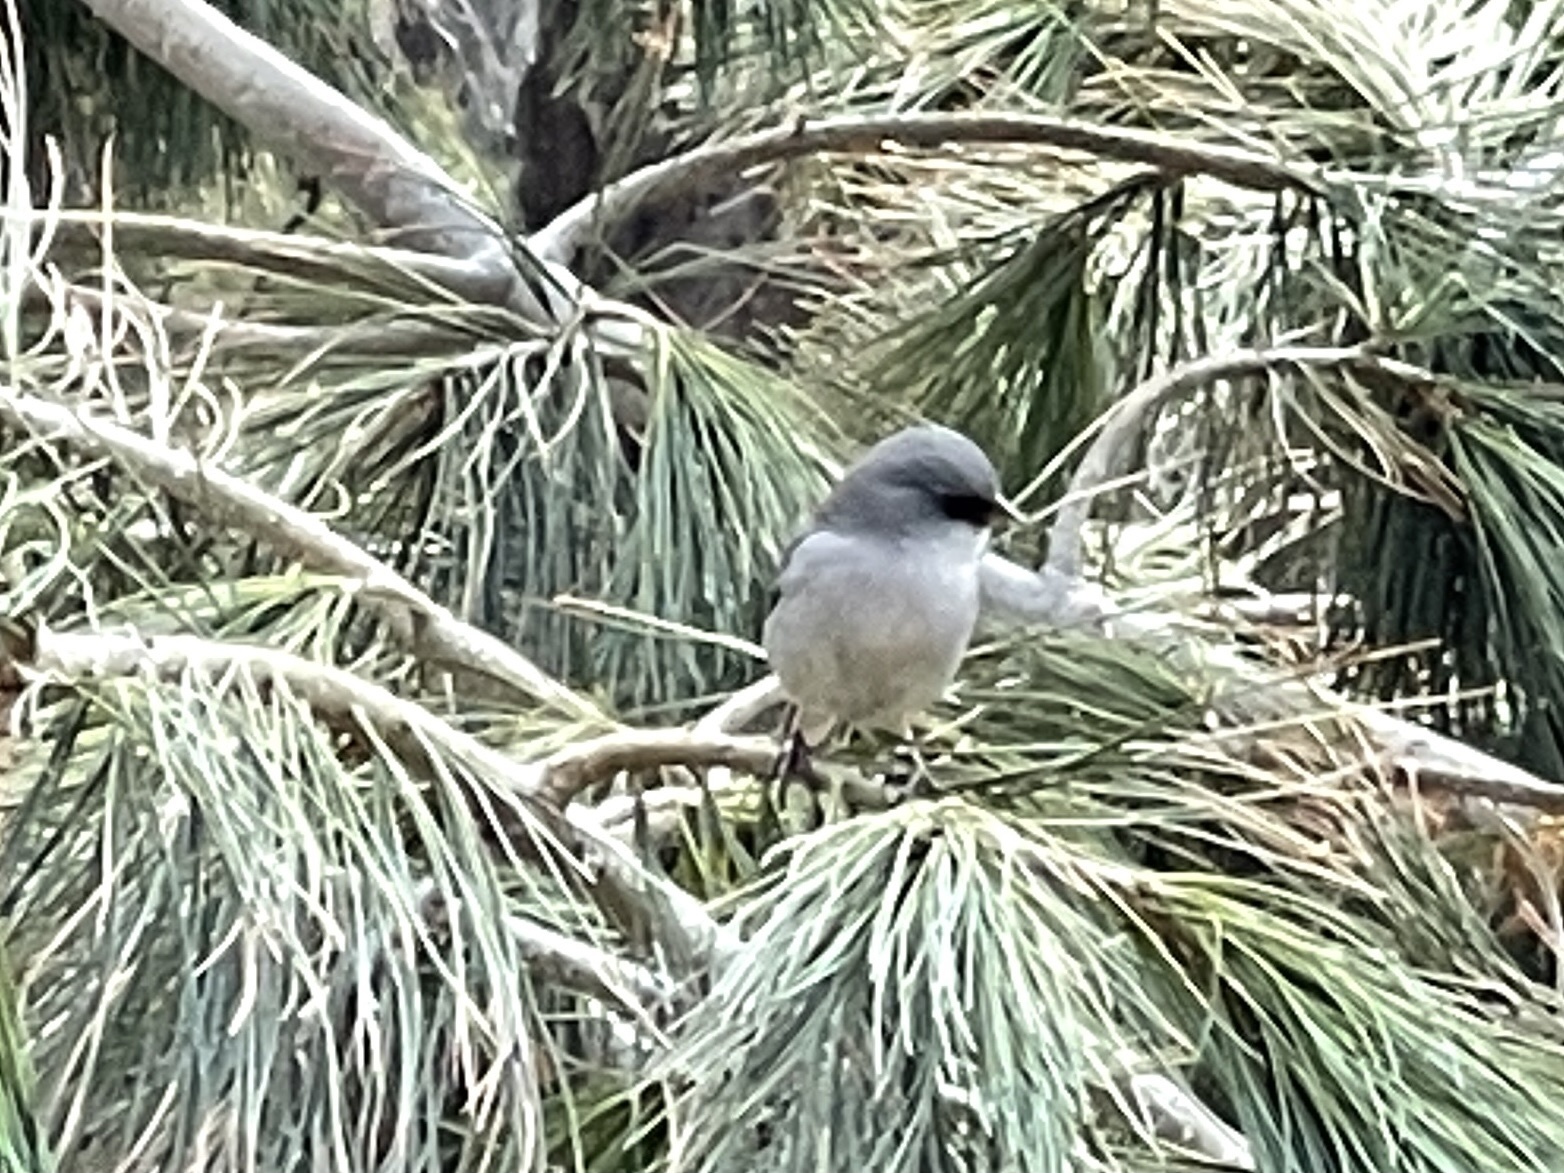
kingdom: Animalia
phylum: Chordata
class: Aves
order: Passeriformes
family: Passerellidae
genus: Junco
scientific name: Junco hyemalis
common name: Dark-eyed junco
